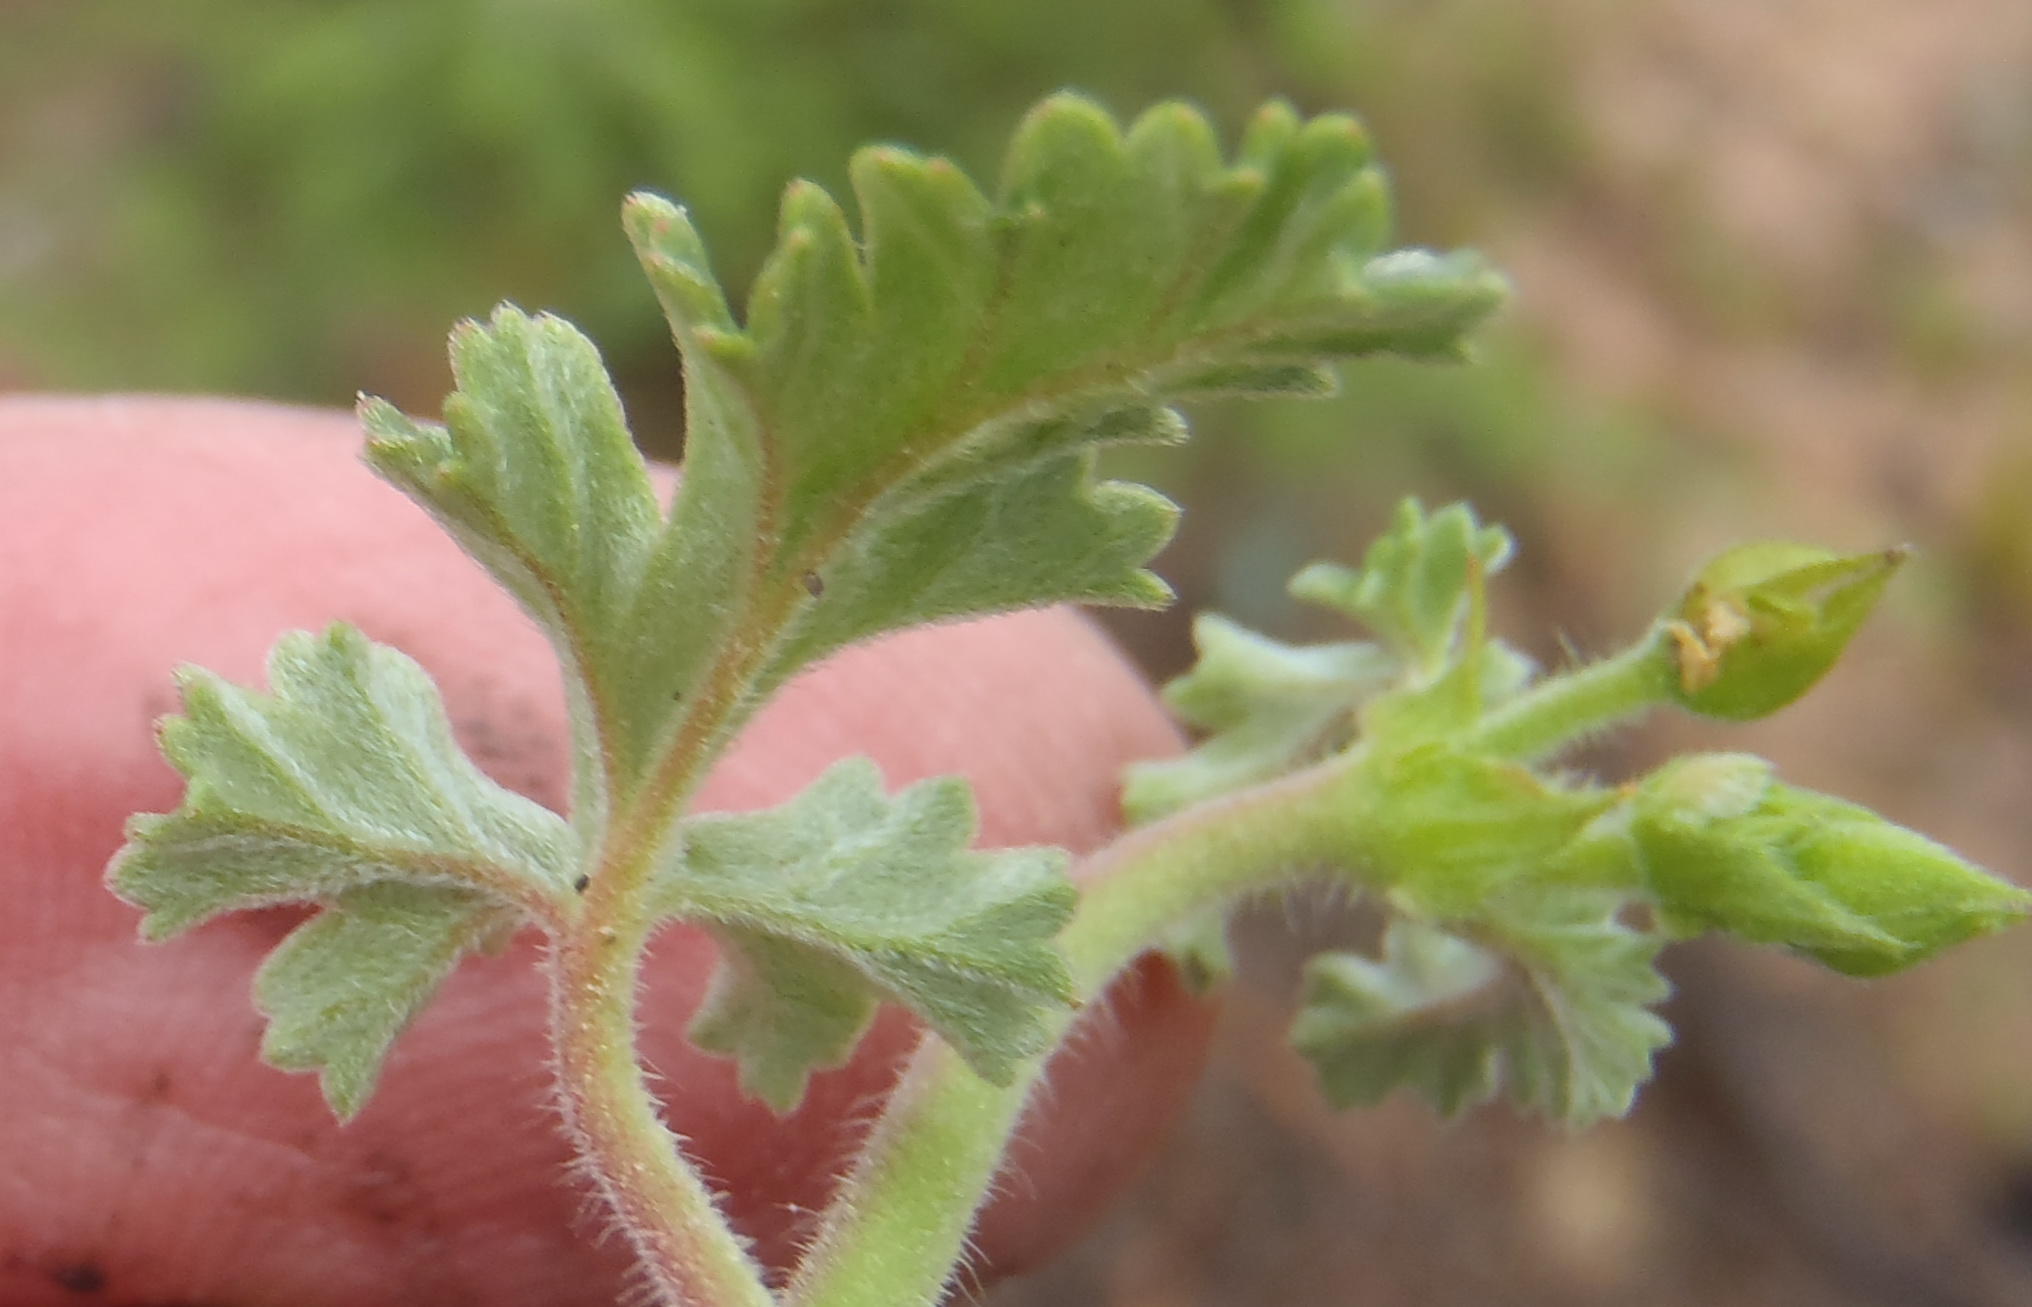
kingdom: Plantae
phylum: Tracheophyta
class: Magnoliopsida
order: Geraniales
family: Geraniaceae
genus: Pelargonium
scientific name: Pelargonium candicans
